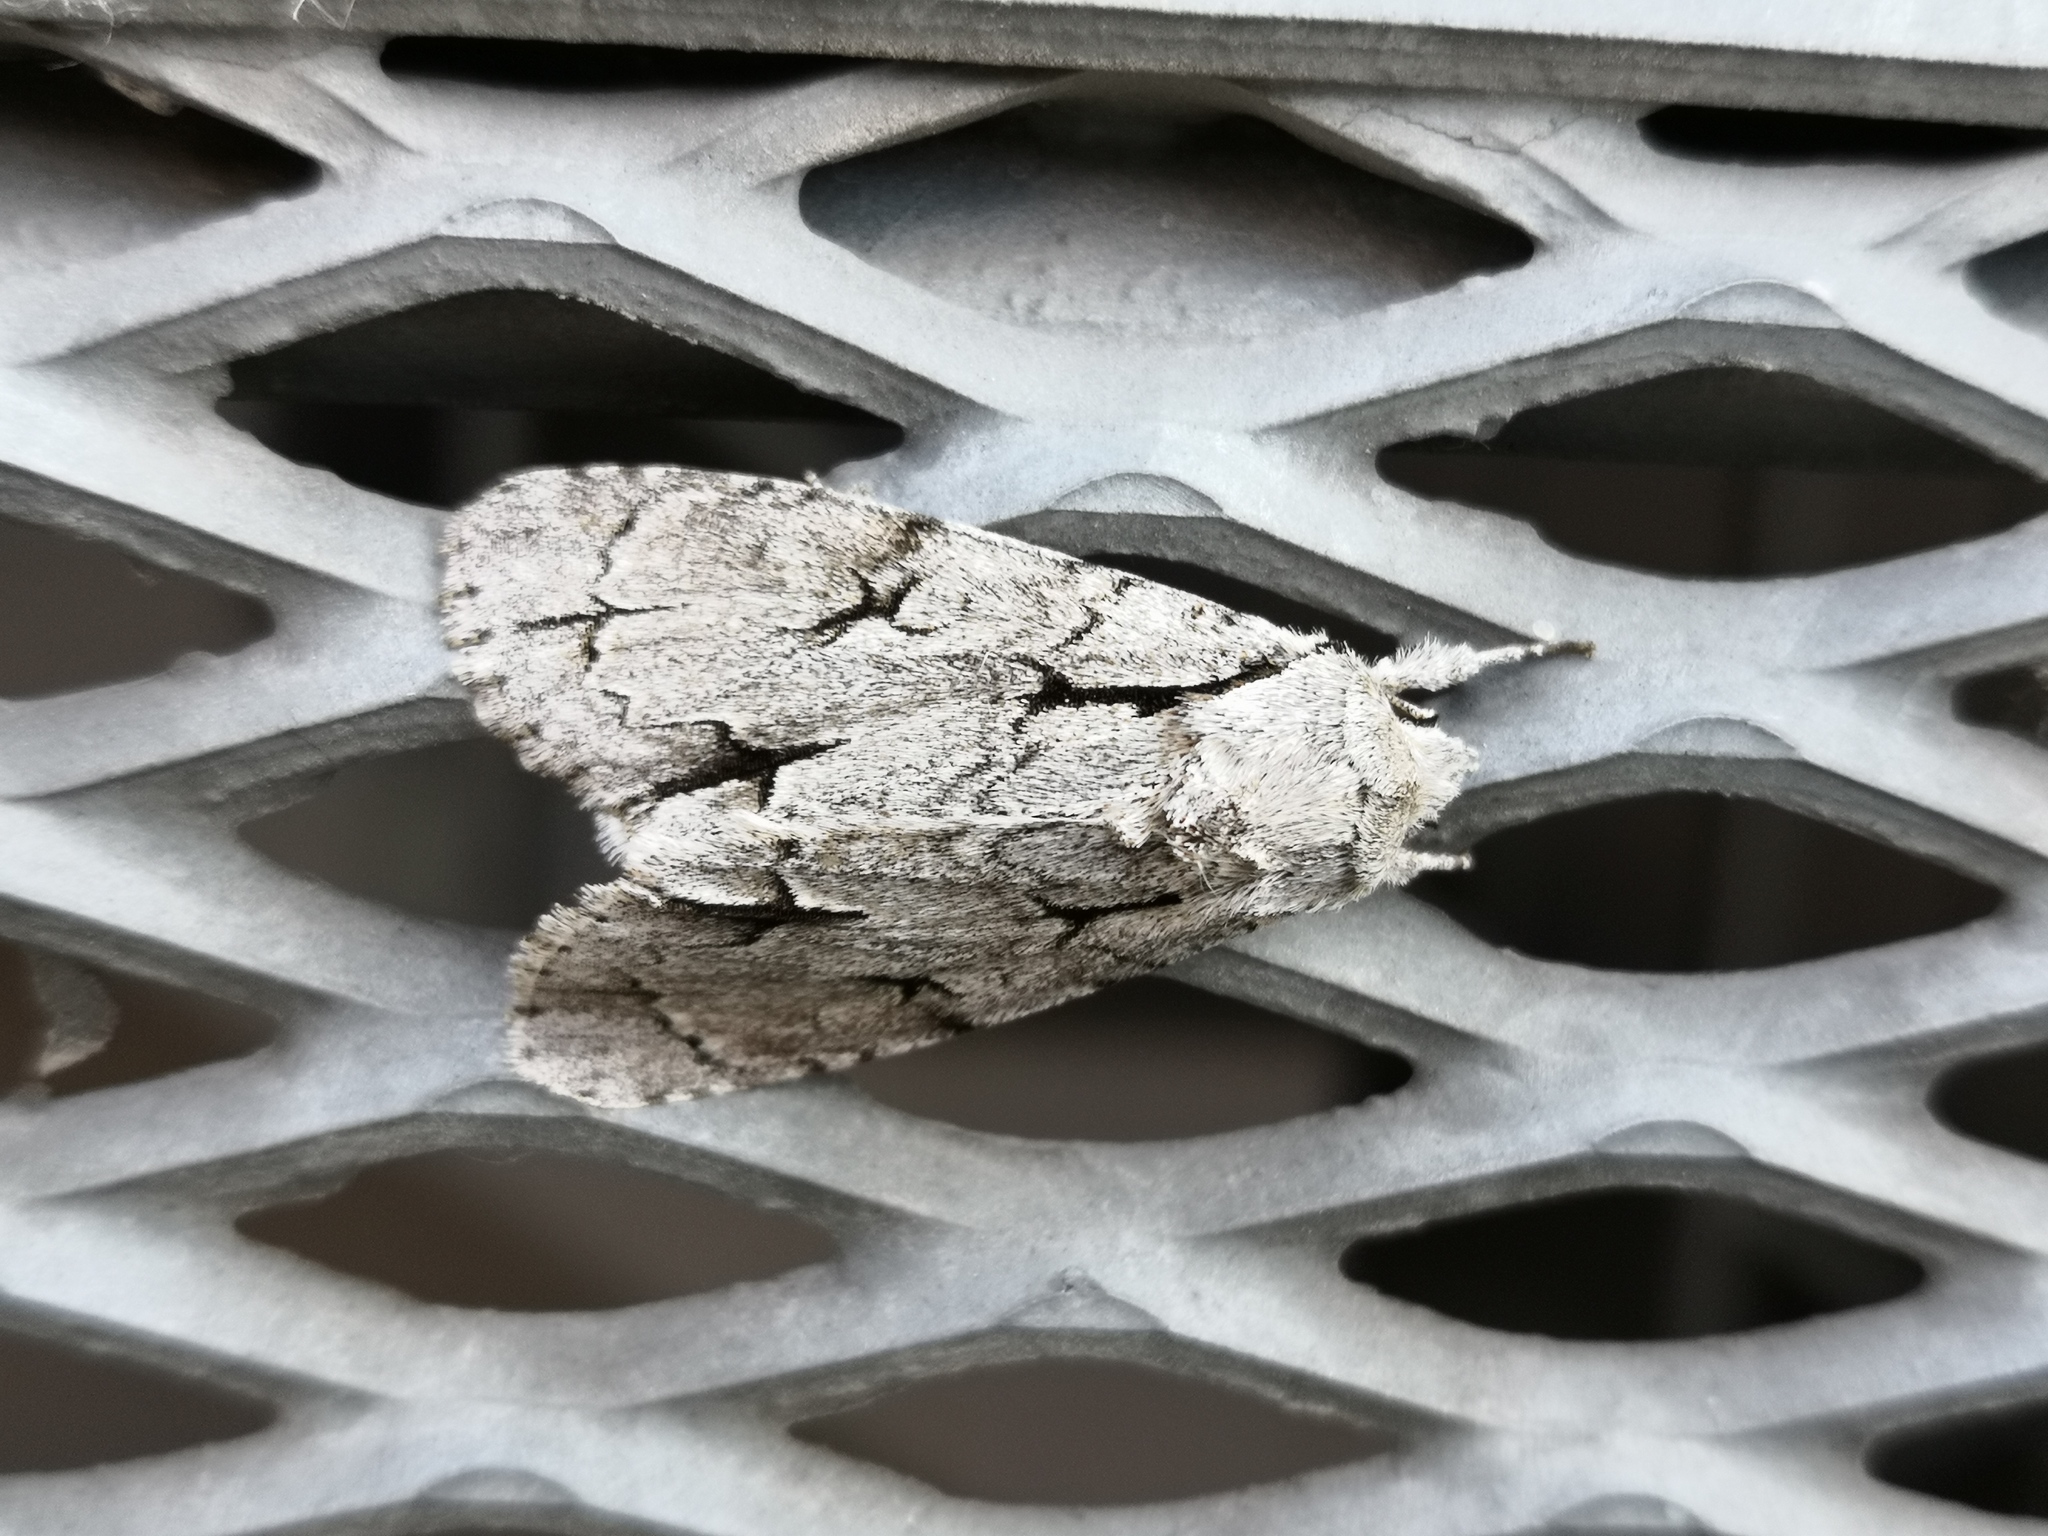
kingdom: Animalia
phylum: Arthropoda
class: Insecta
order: Lepidoptera
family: Noctuidae
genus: Acronicta
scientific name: Acronicta psi
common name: Grey dagger
